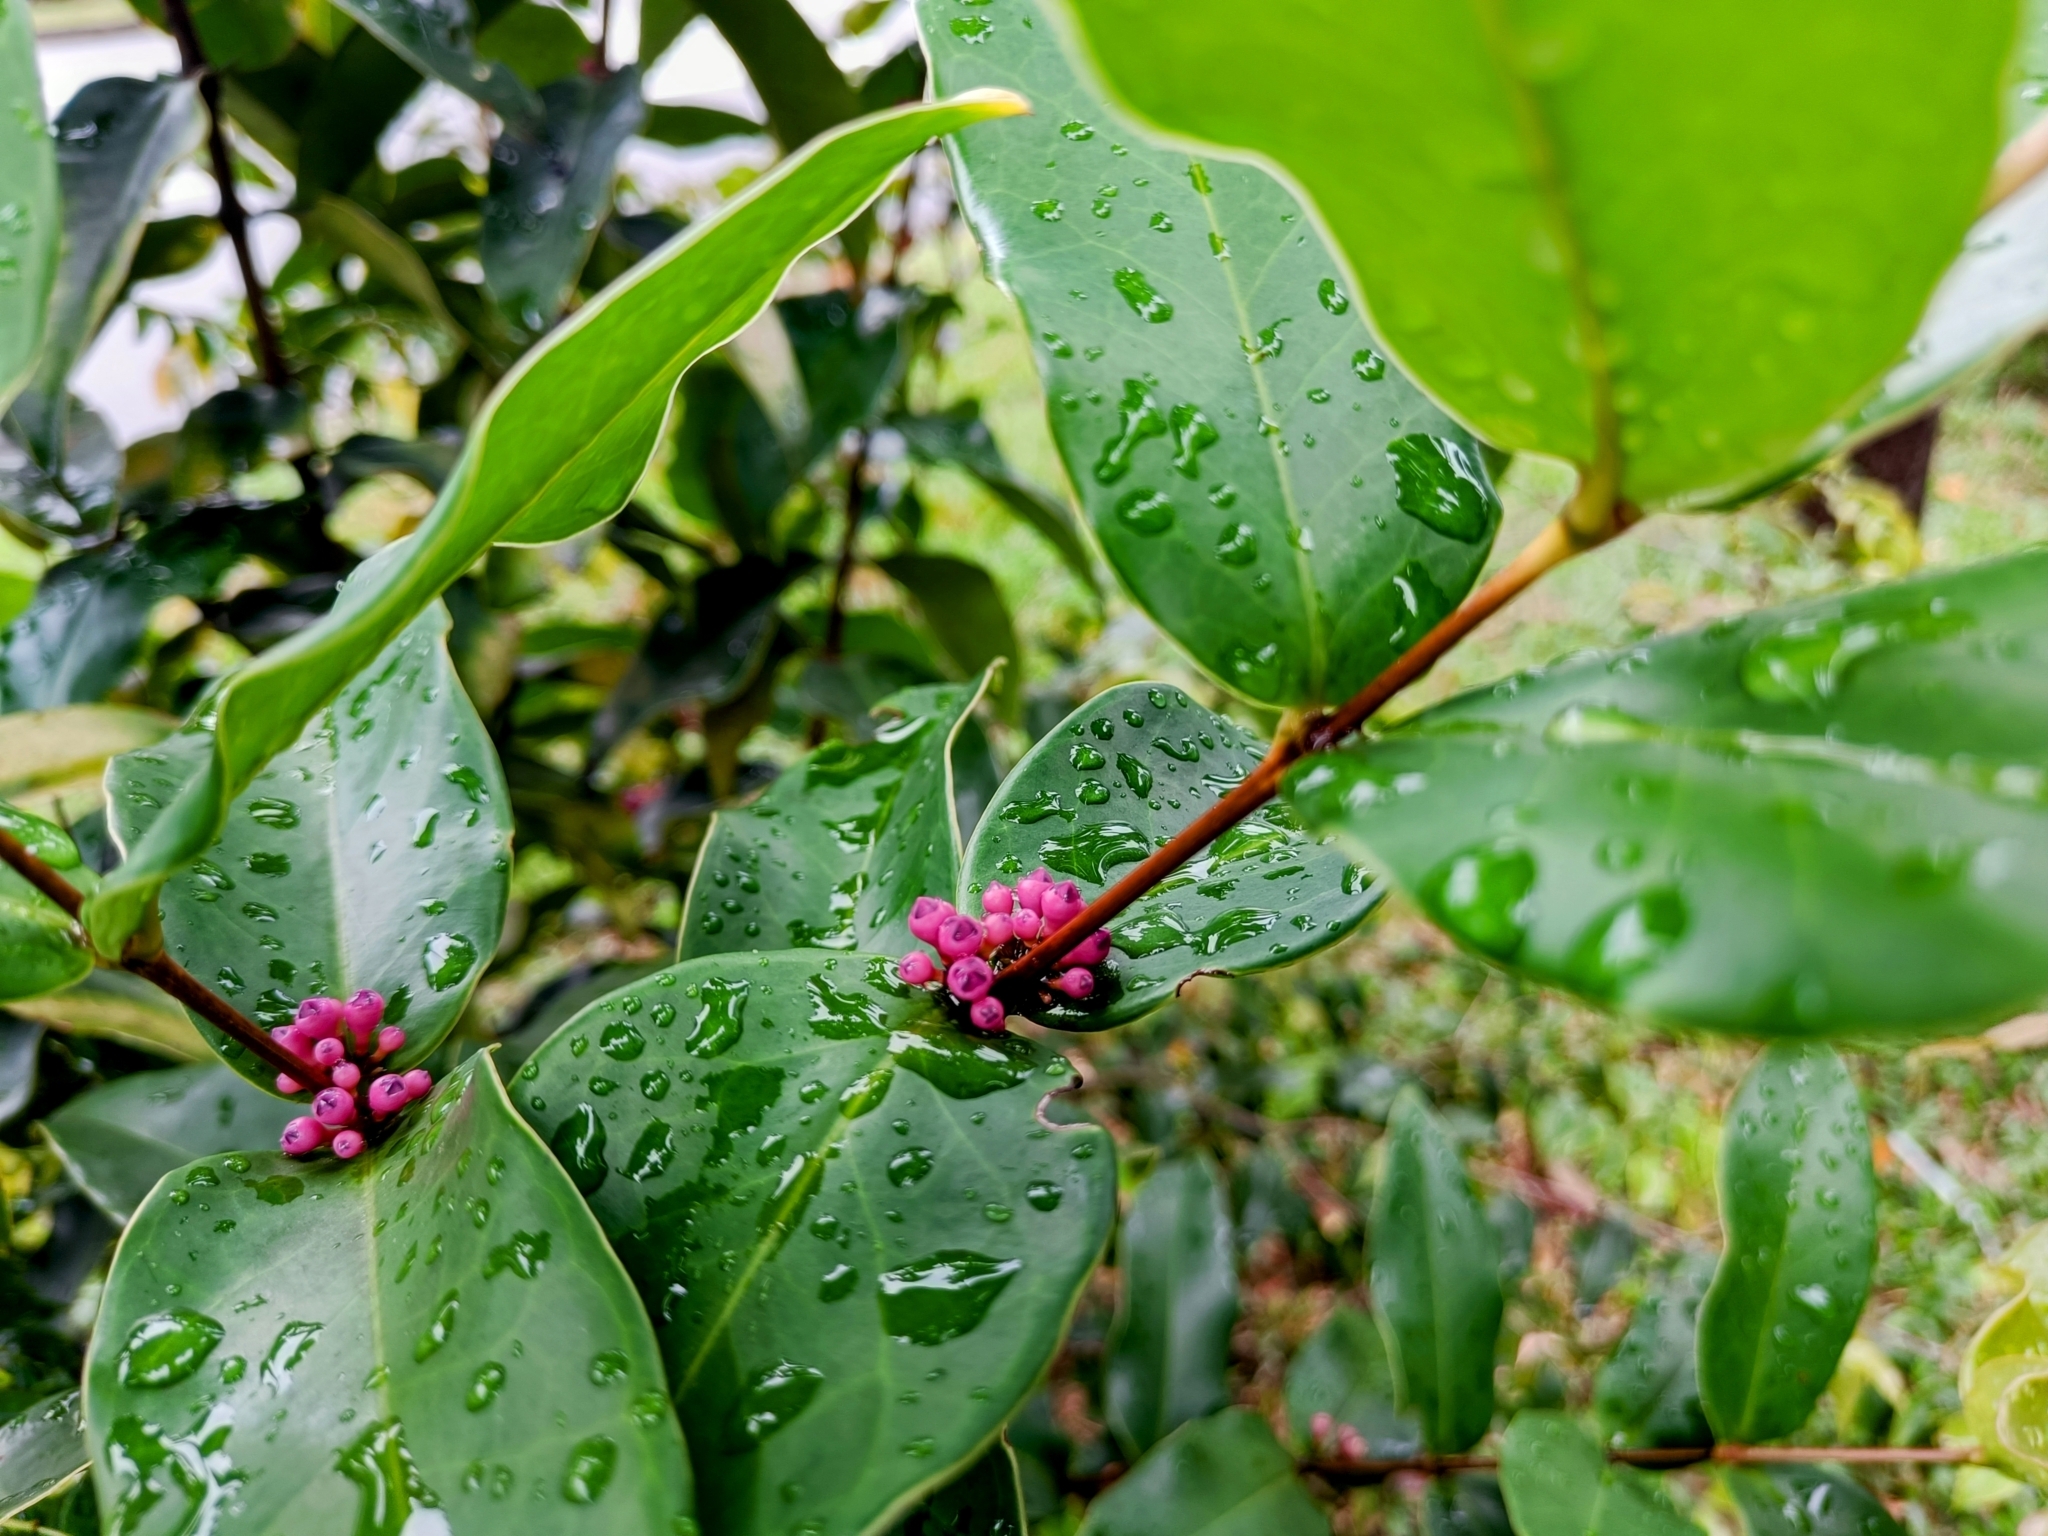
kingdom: Plantae
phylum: Tracheophyta
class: Magnoliopsida
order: Myrtales
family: Melastomataceae
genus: Memecylon
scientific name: Memecylon caeruleum
